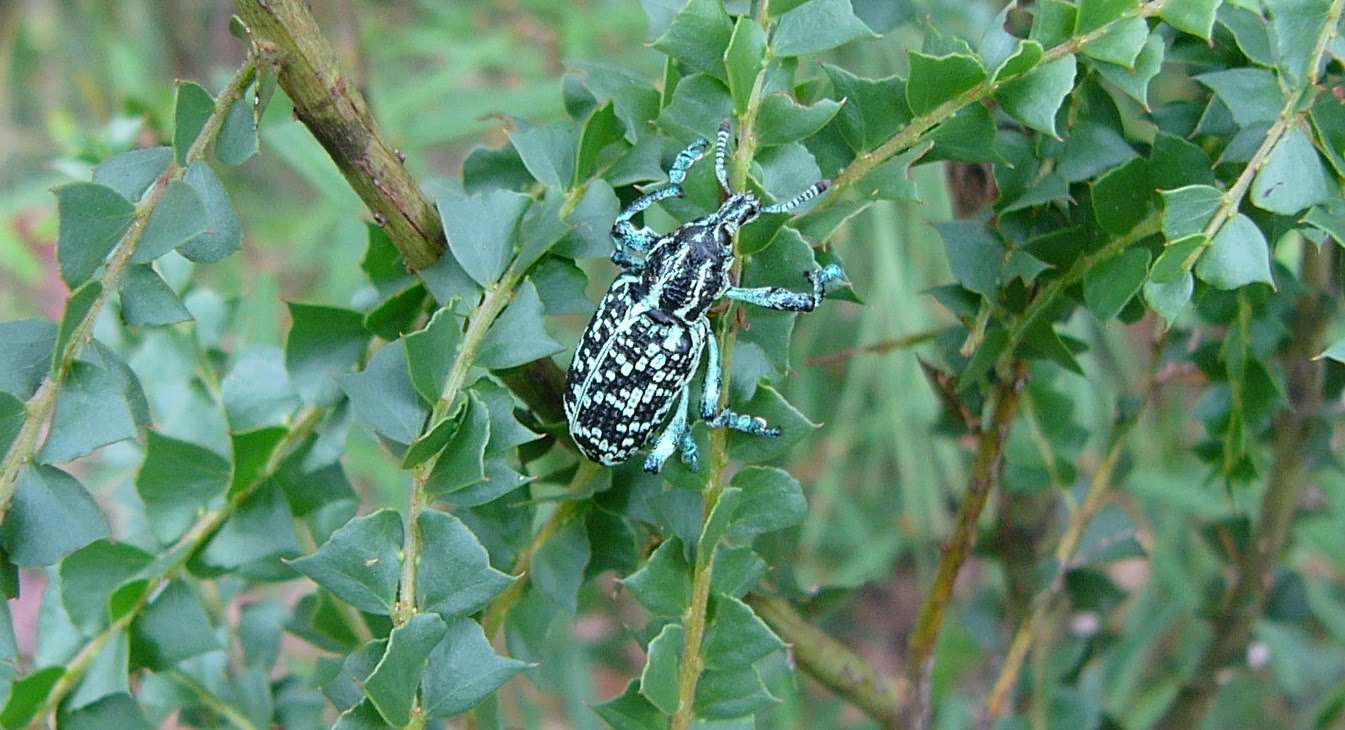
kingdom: Animalia
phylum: Arthropoda
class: Insecta
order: Coleoptera
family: Curculionidae
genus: Chrysolopus
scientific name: Chrysolopus spectabilis
